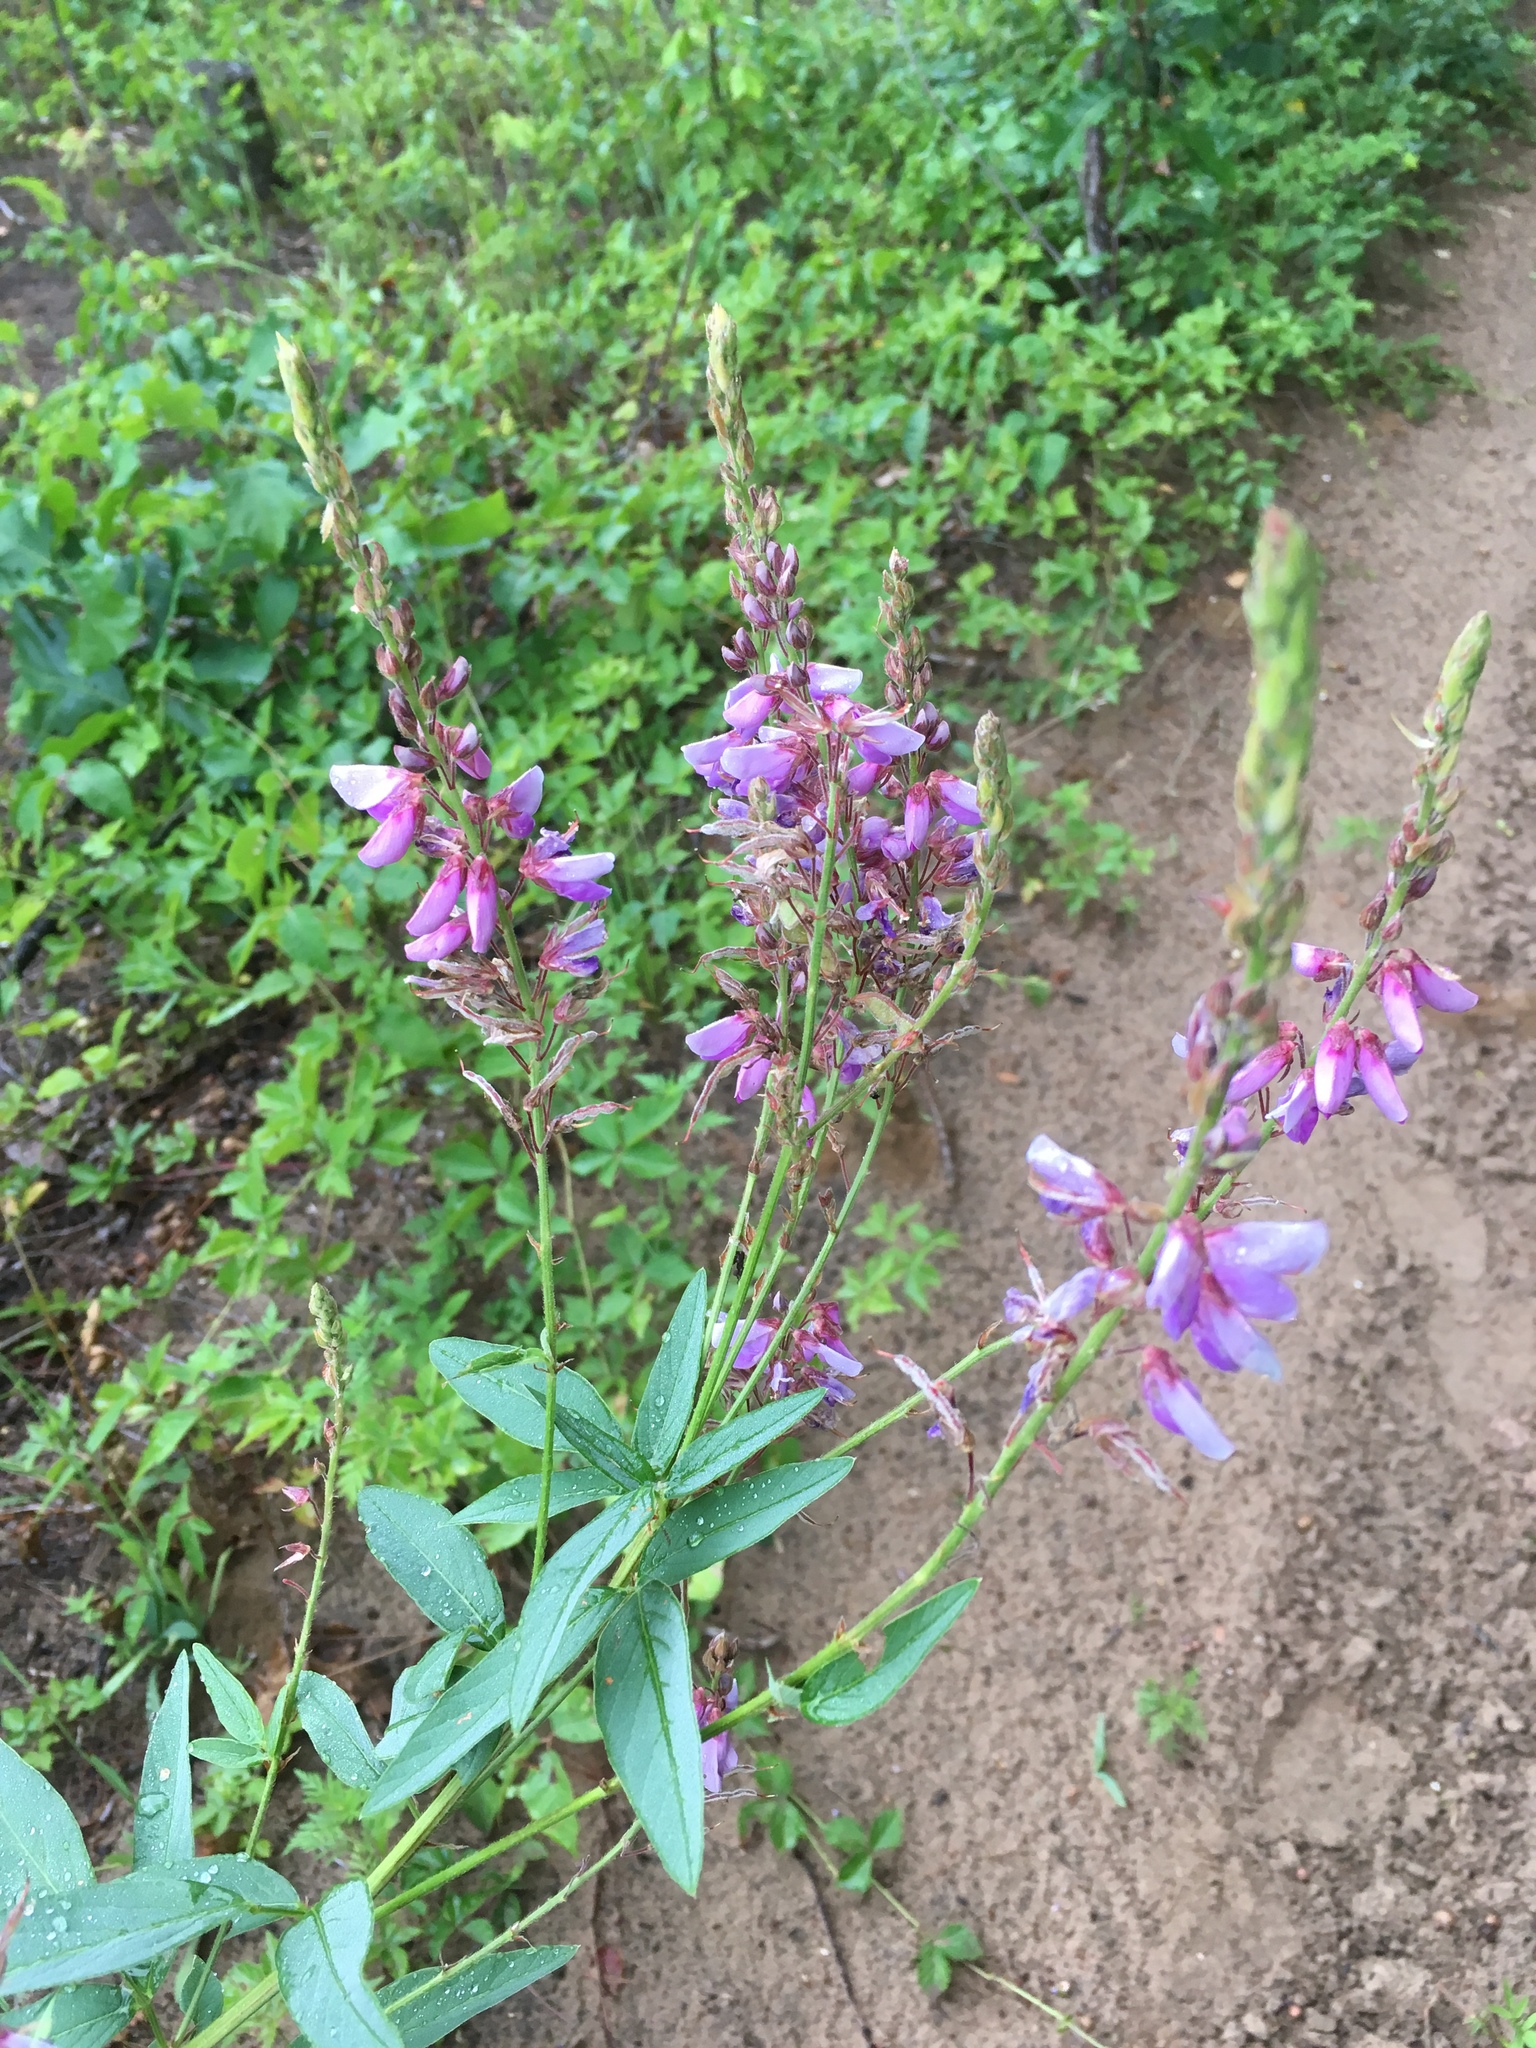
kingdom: Plantae
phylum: Tracheophyta
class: Magnoliopsida
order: Fabales
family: Fabaceae
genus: Desmodium
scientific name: Desmodium canadense
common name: Canada tick-trefoil
